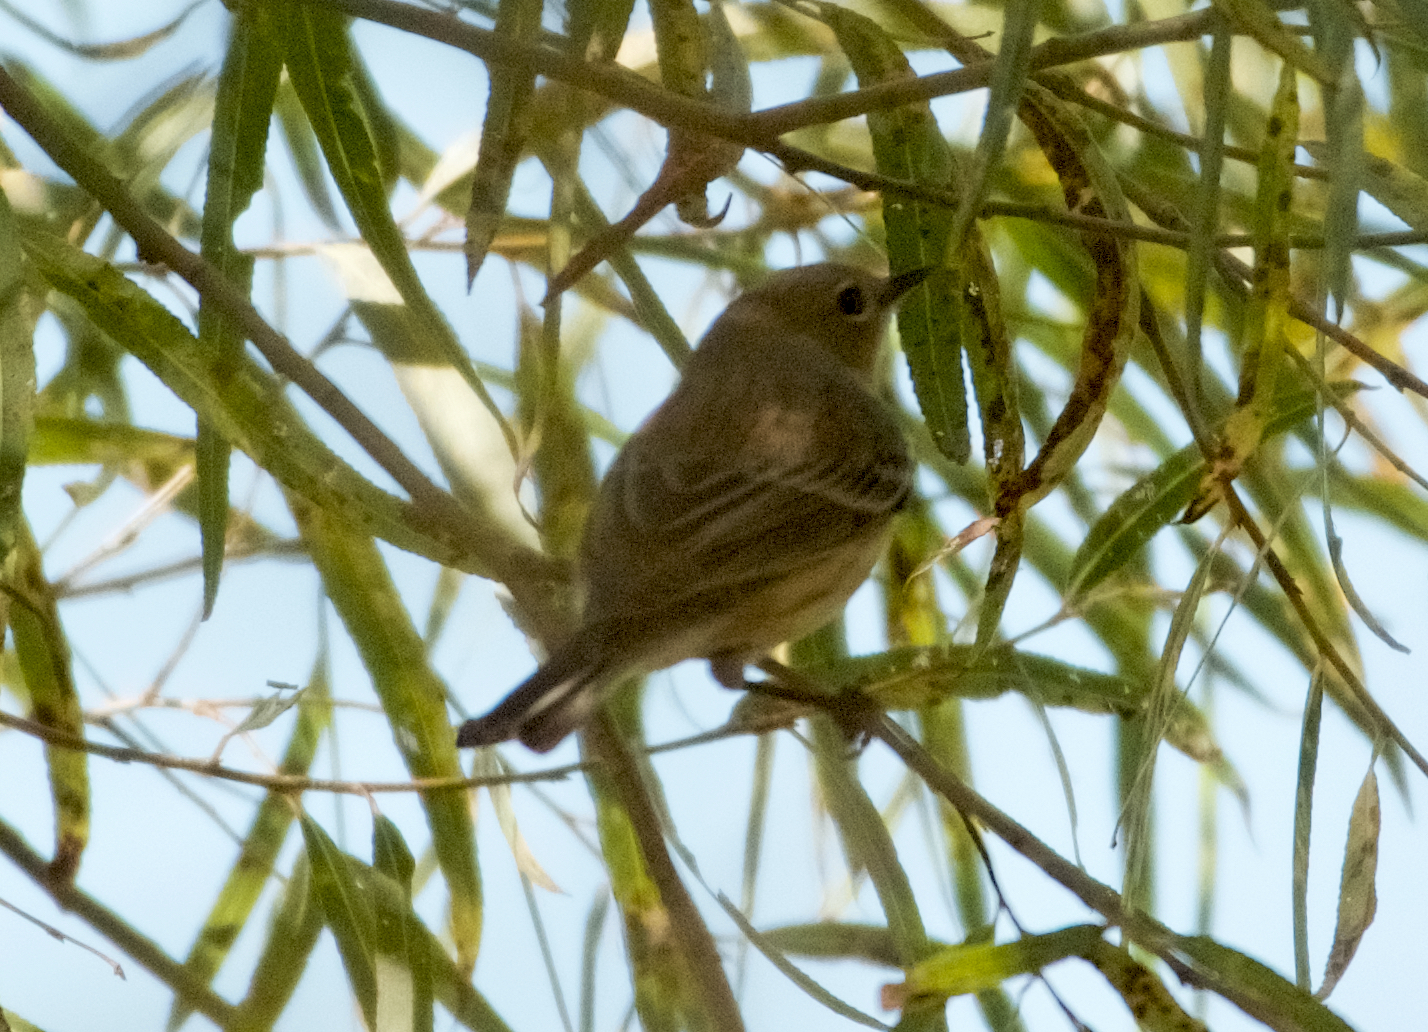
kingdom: Animalia
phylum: Chordata
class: Aves
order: Passeriformes
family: Parulidae
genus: Setophaga
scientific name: Setophaga coronata
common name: Myrtle warbler
